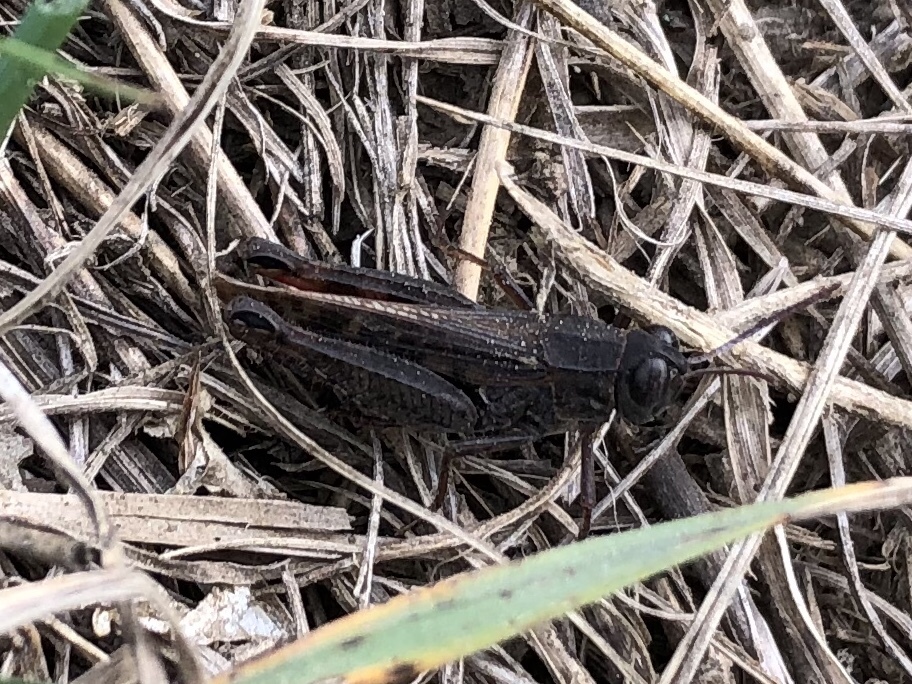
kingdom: Animalia
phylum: Arthropoda
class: Insecta
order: Orthoptera
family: Acrididae
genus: Calliptamus
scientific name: Calliptamus italicus
